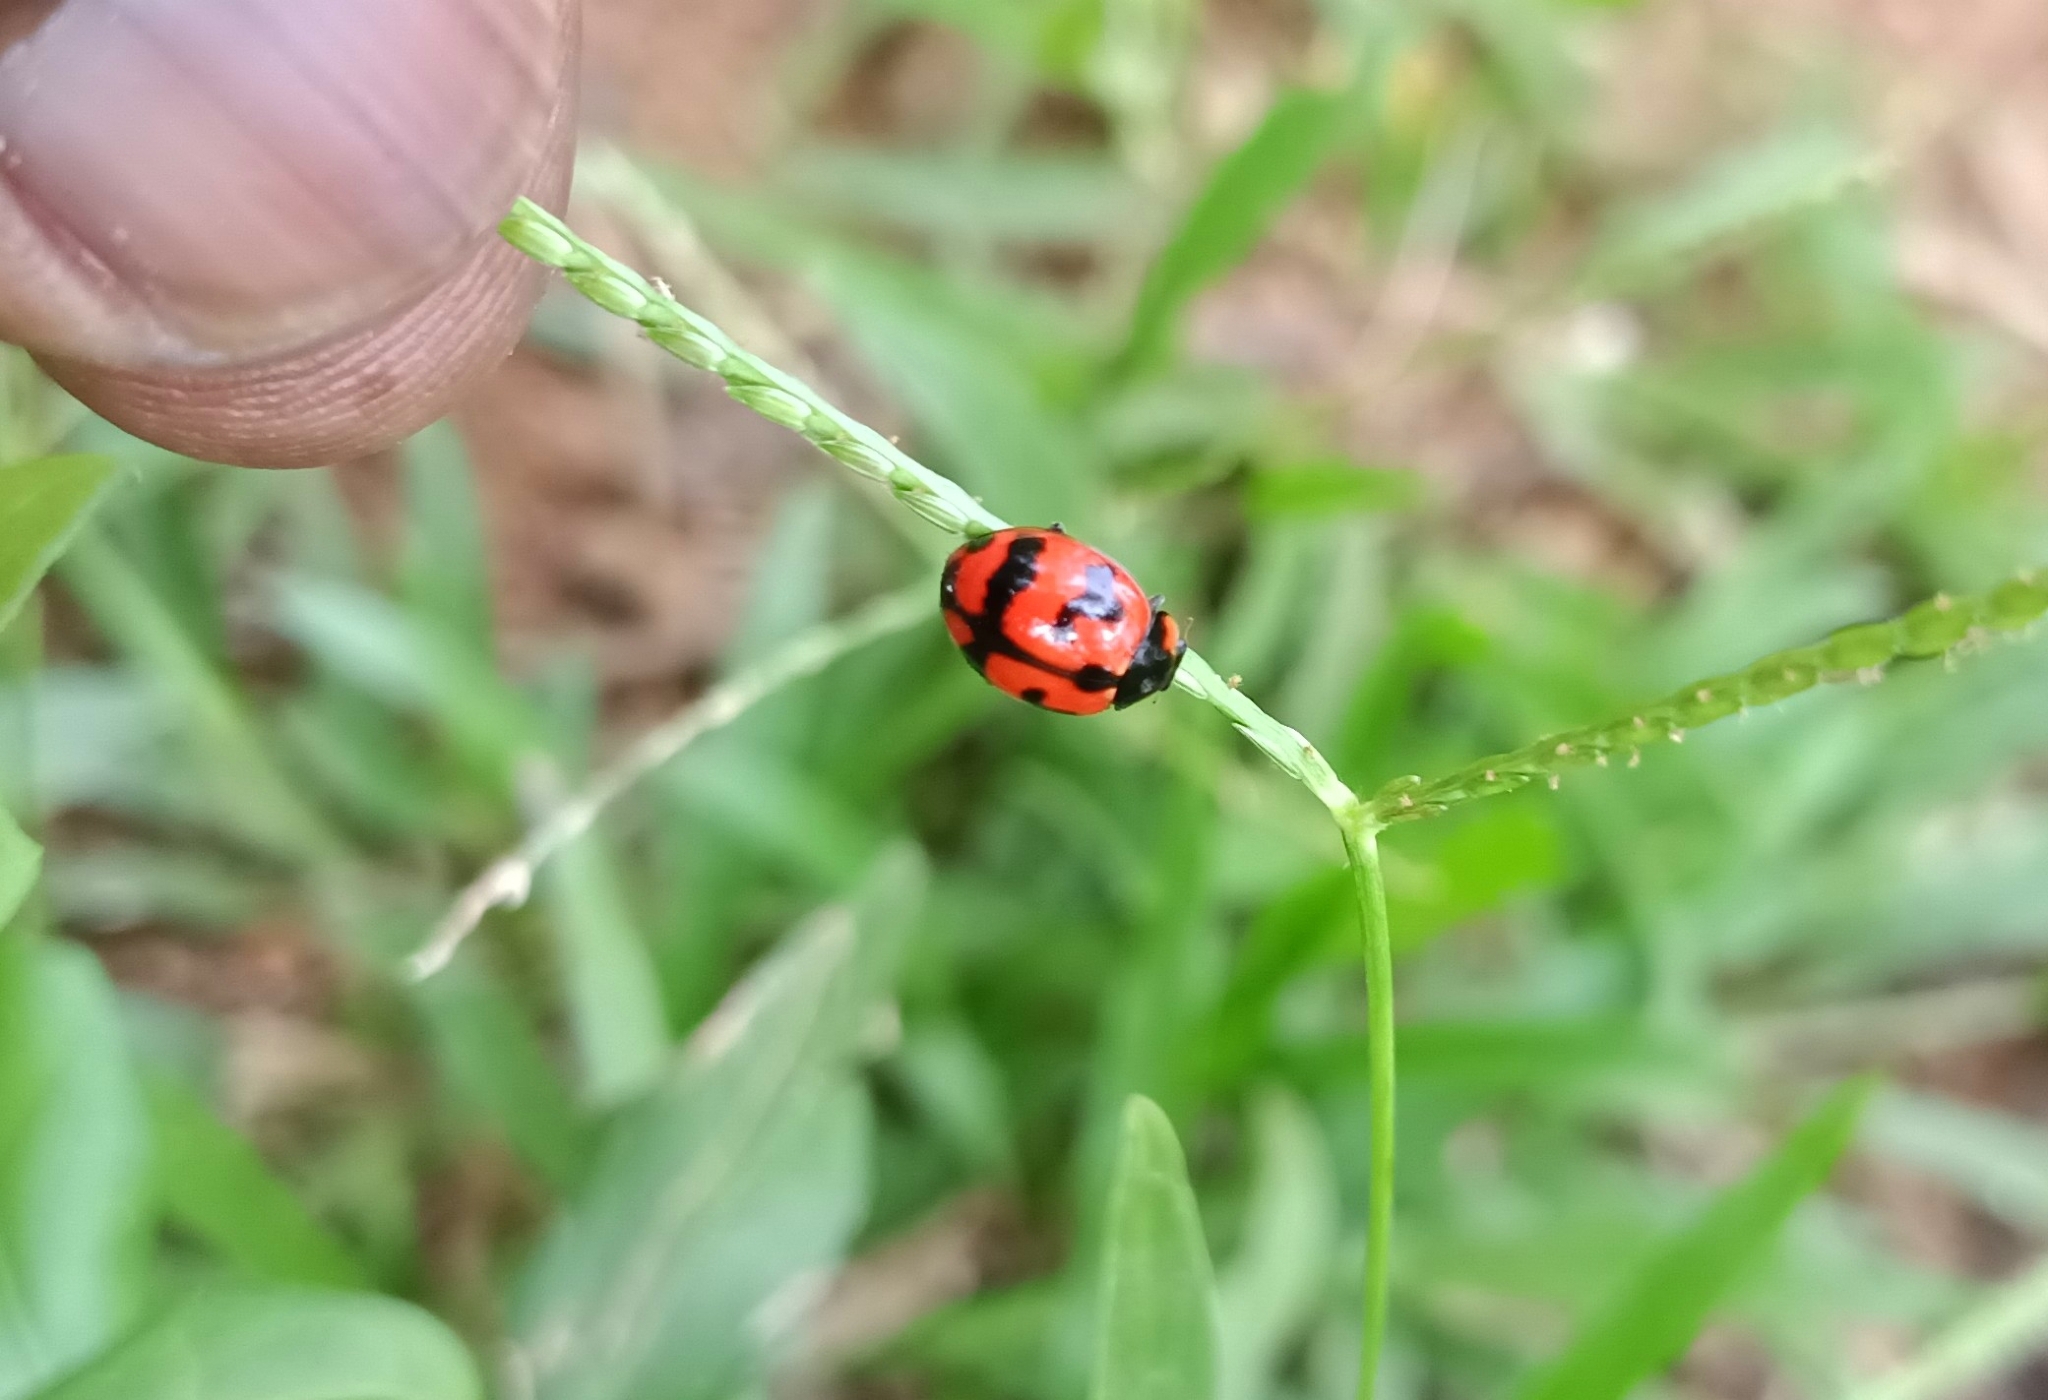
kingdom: Animalia
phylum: Arthropoda
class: Insecta
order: Coleoptera
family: Coccinellidae
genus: Coccinella
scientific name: Coccinella transversalis
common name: Transverse lady beetle
